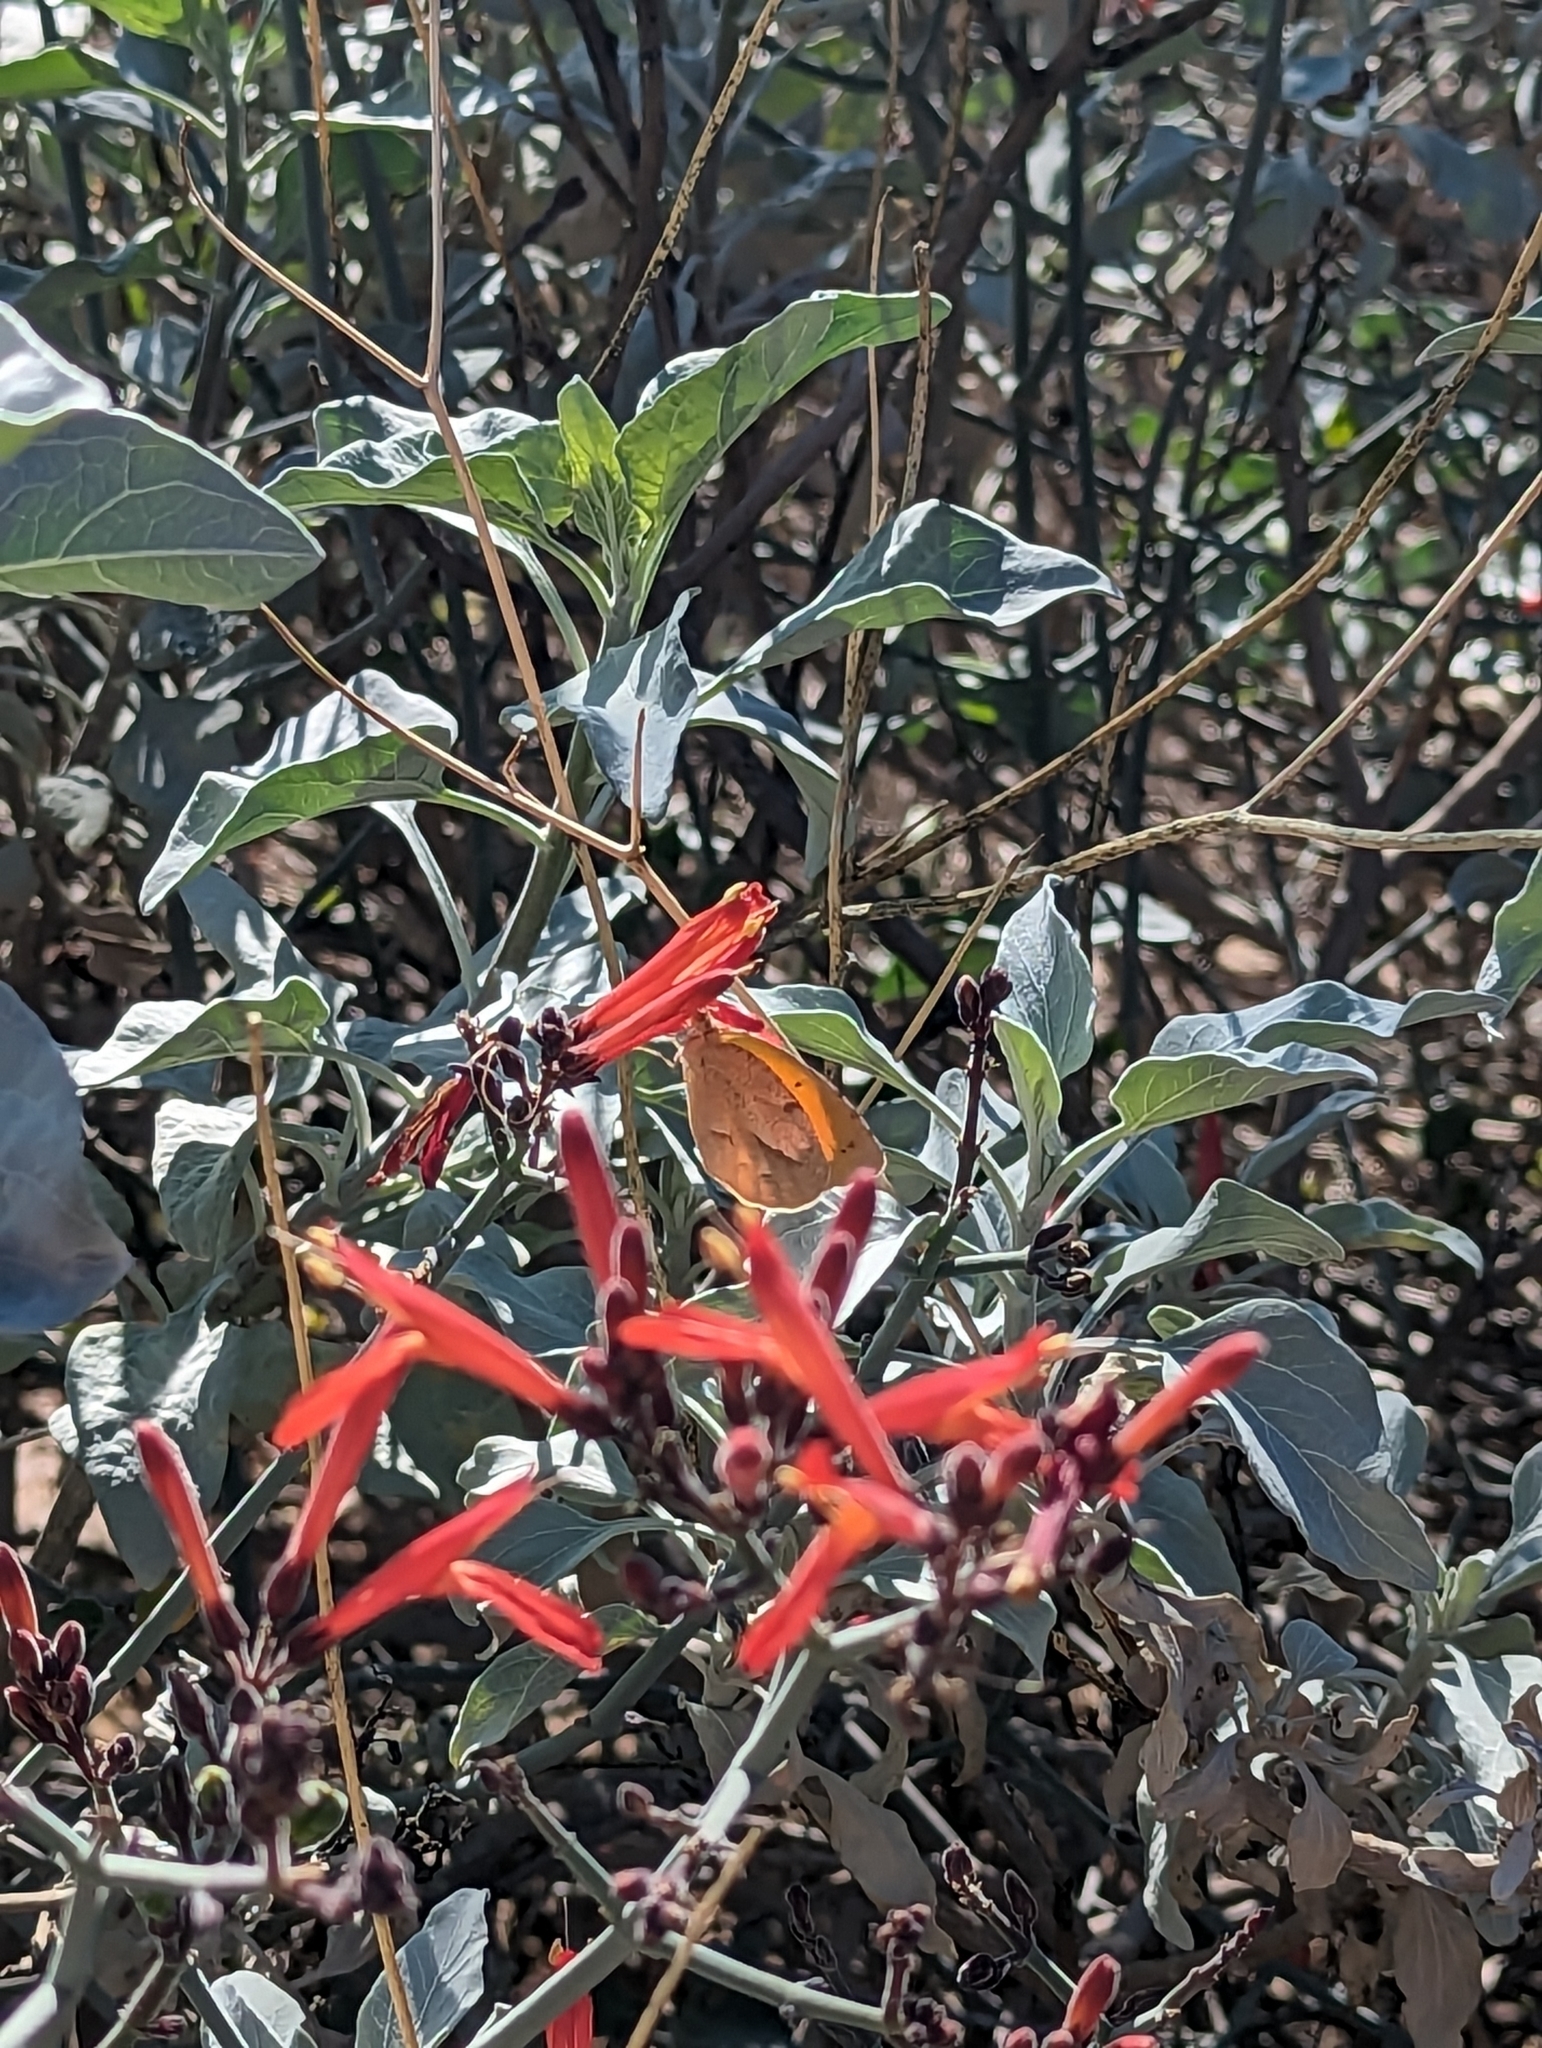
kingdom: Animalia
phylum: Arthropoda
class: Insecta
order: Lepidoptera
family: Pieridae
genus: Abaeis
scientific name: Abaeis nicippe
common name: Sleepy orange
